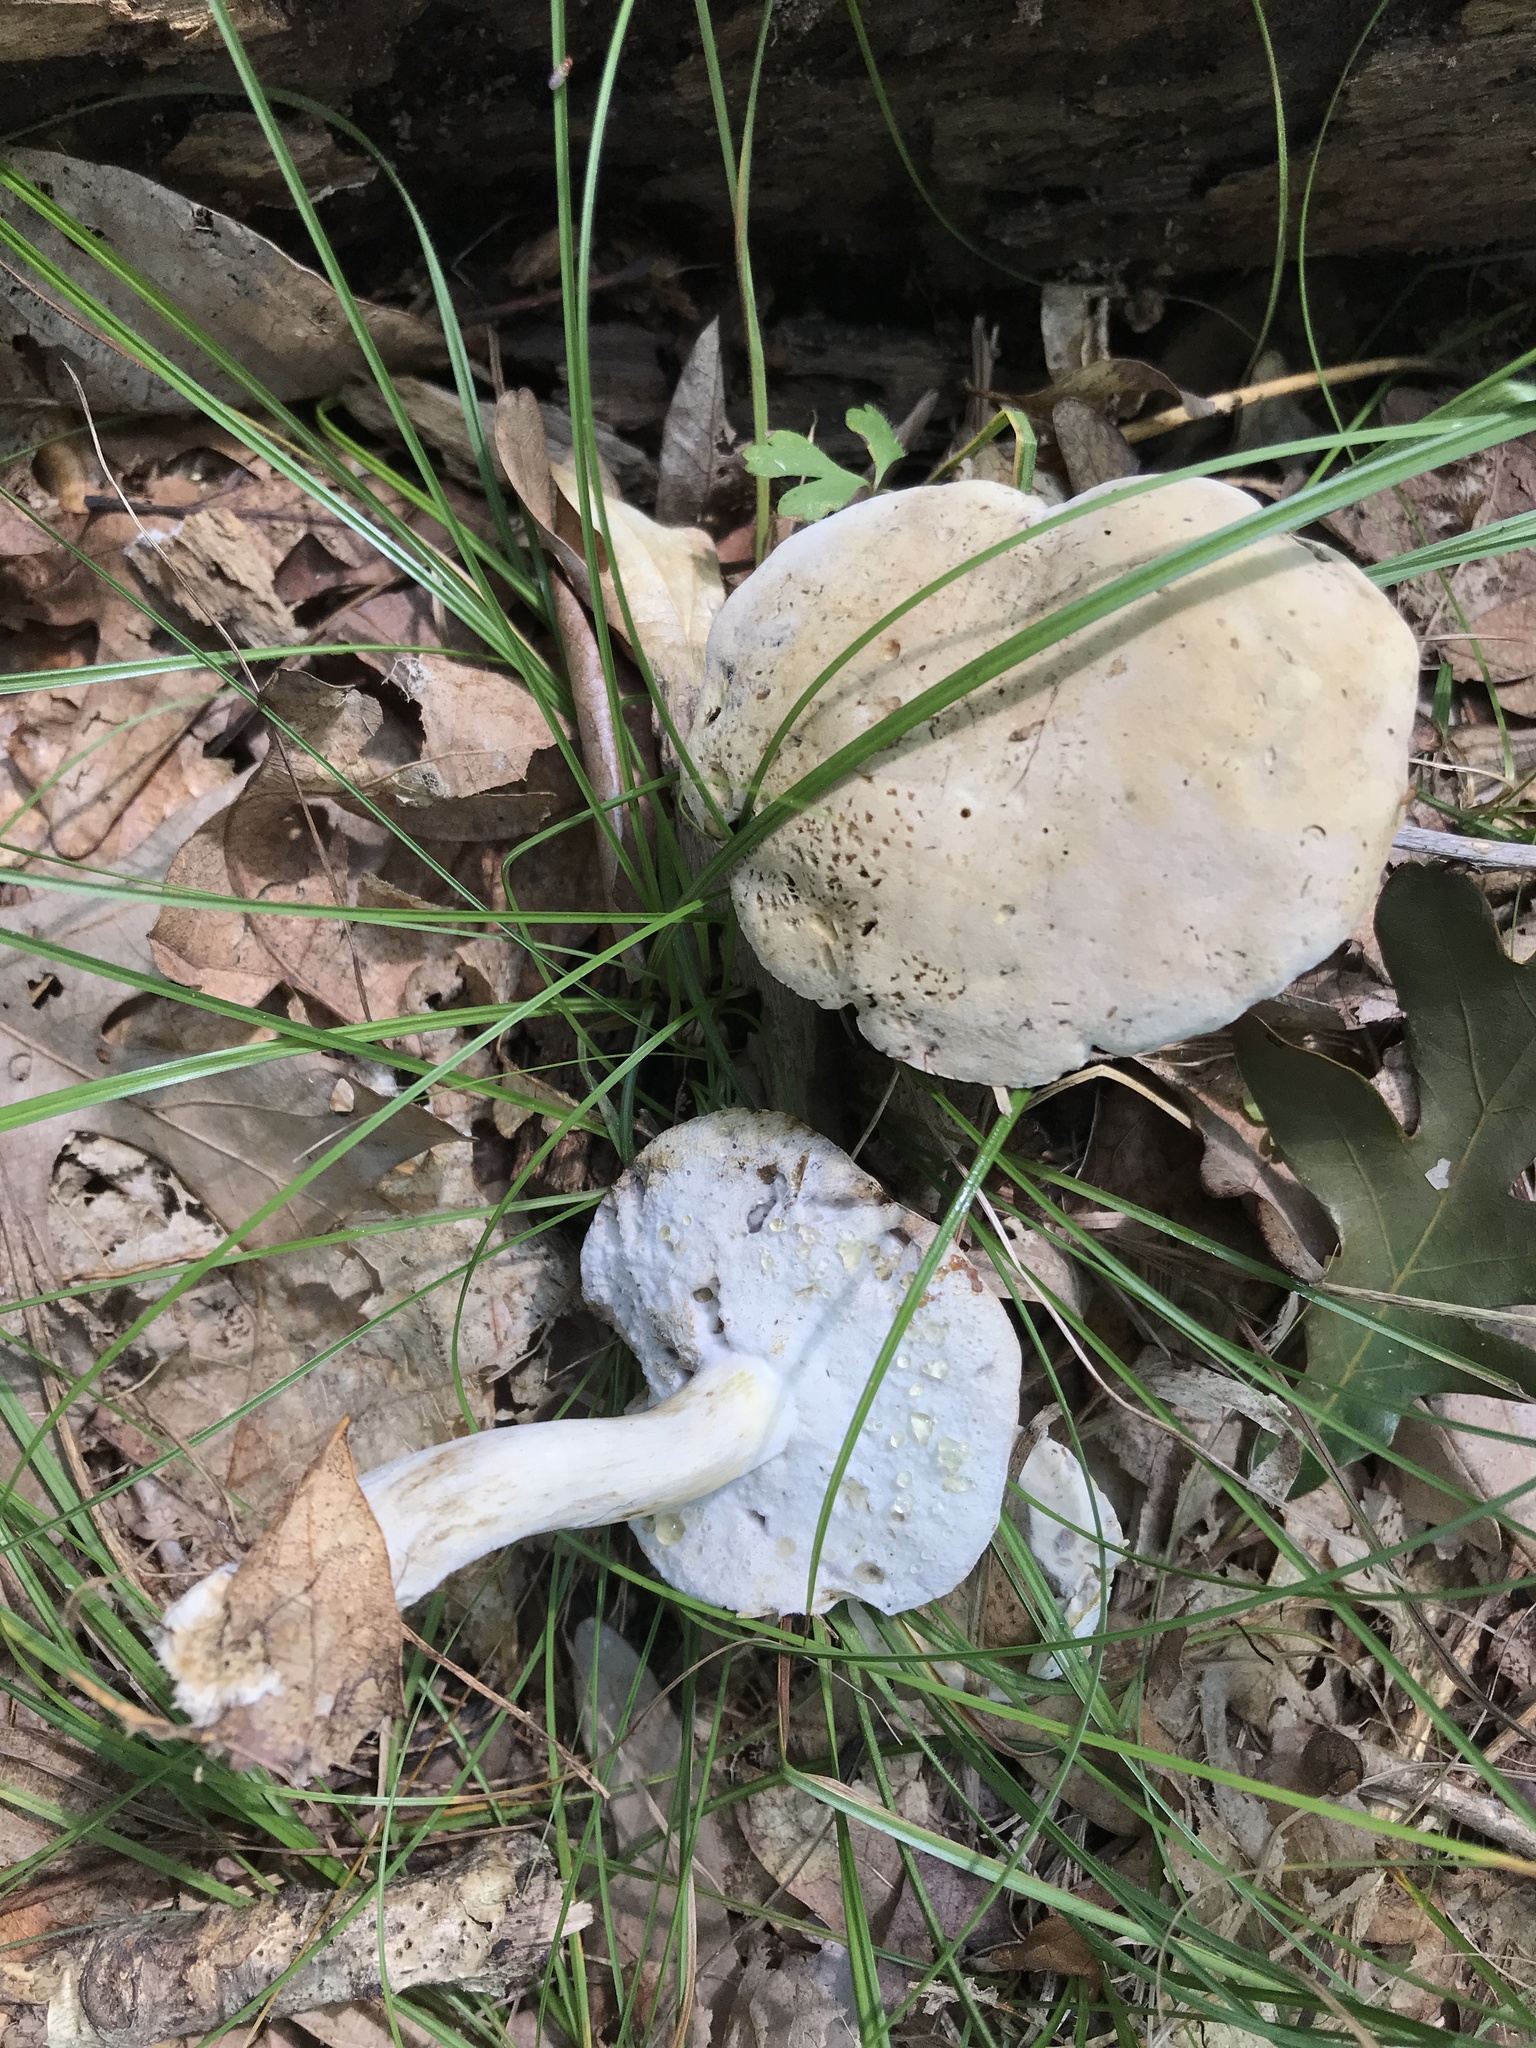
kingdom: Fungi
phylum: Ascomycota
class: Sordariomycetes
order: Hypocreales
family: Hypocreaceae
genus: Hypomyces
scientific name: Hypomyces chrysospermus
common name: Bolete mould
